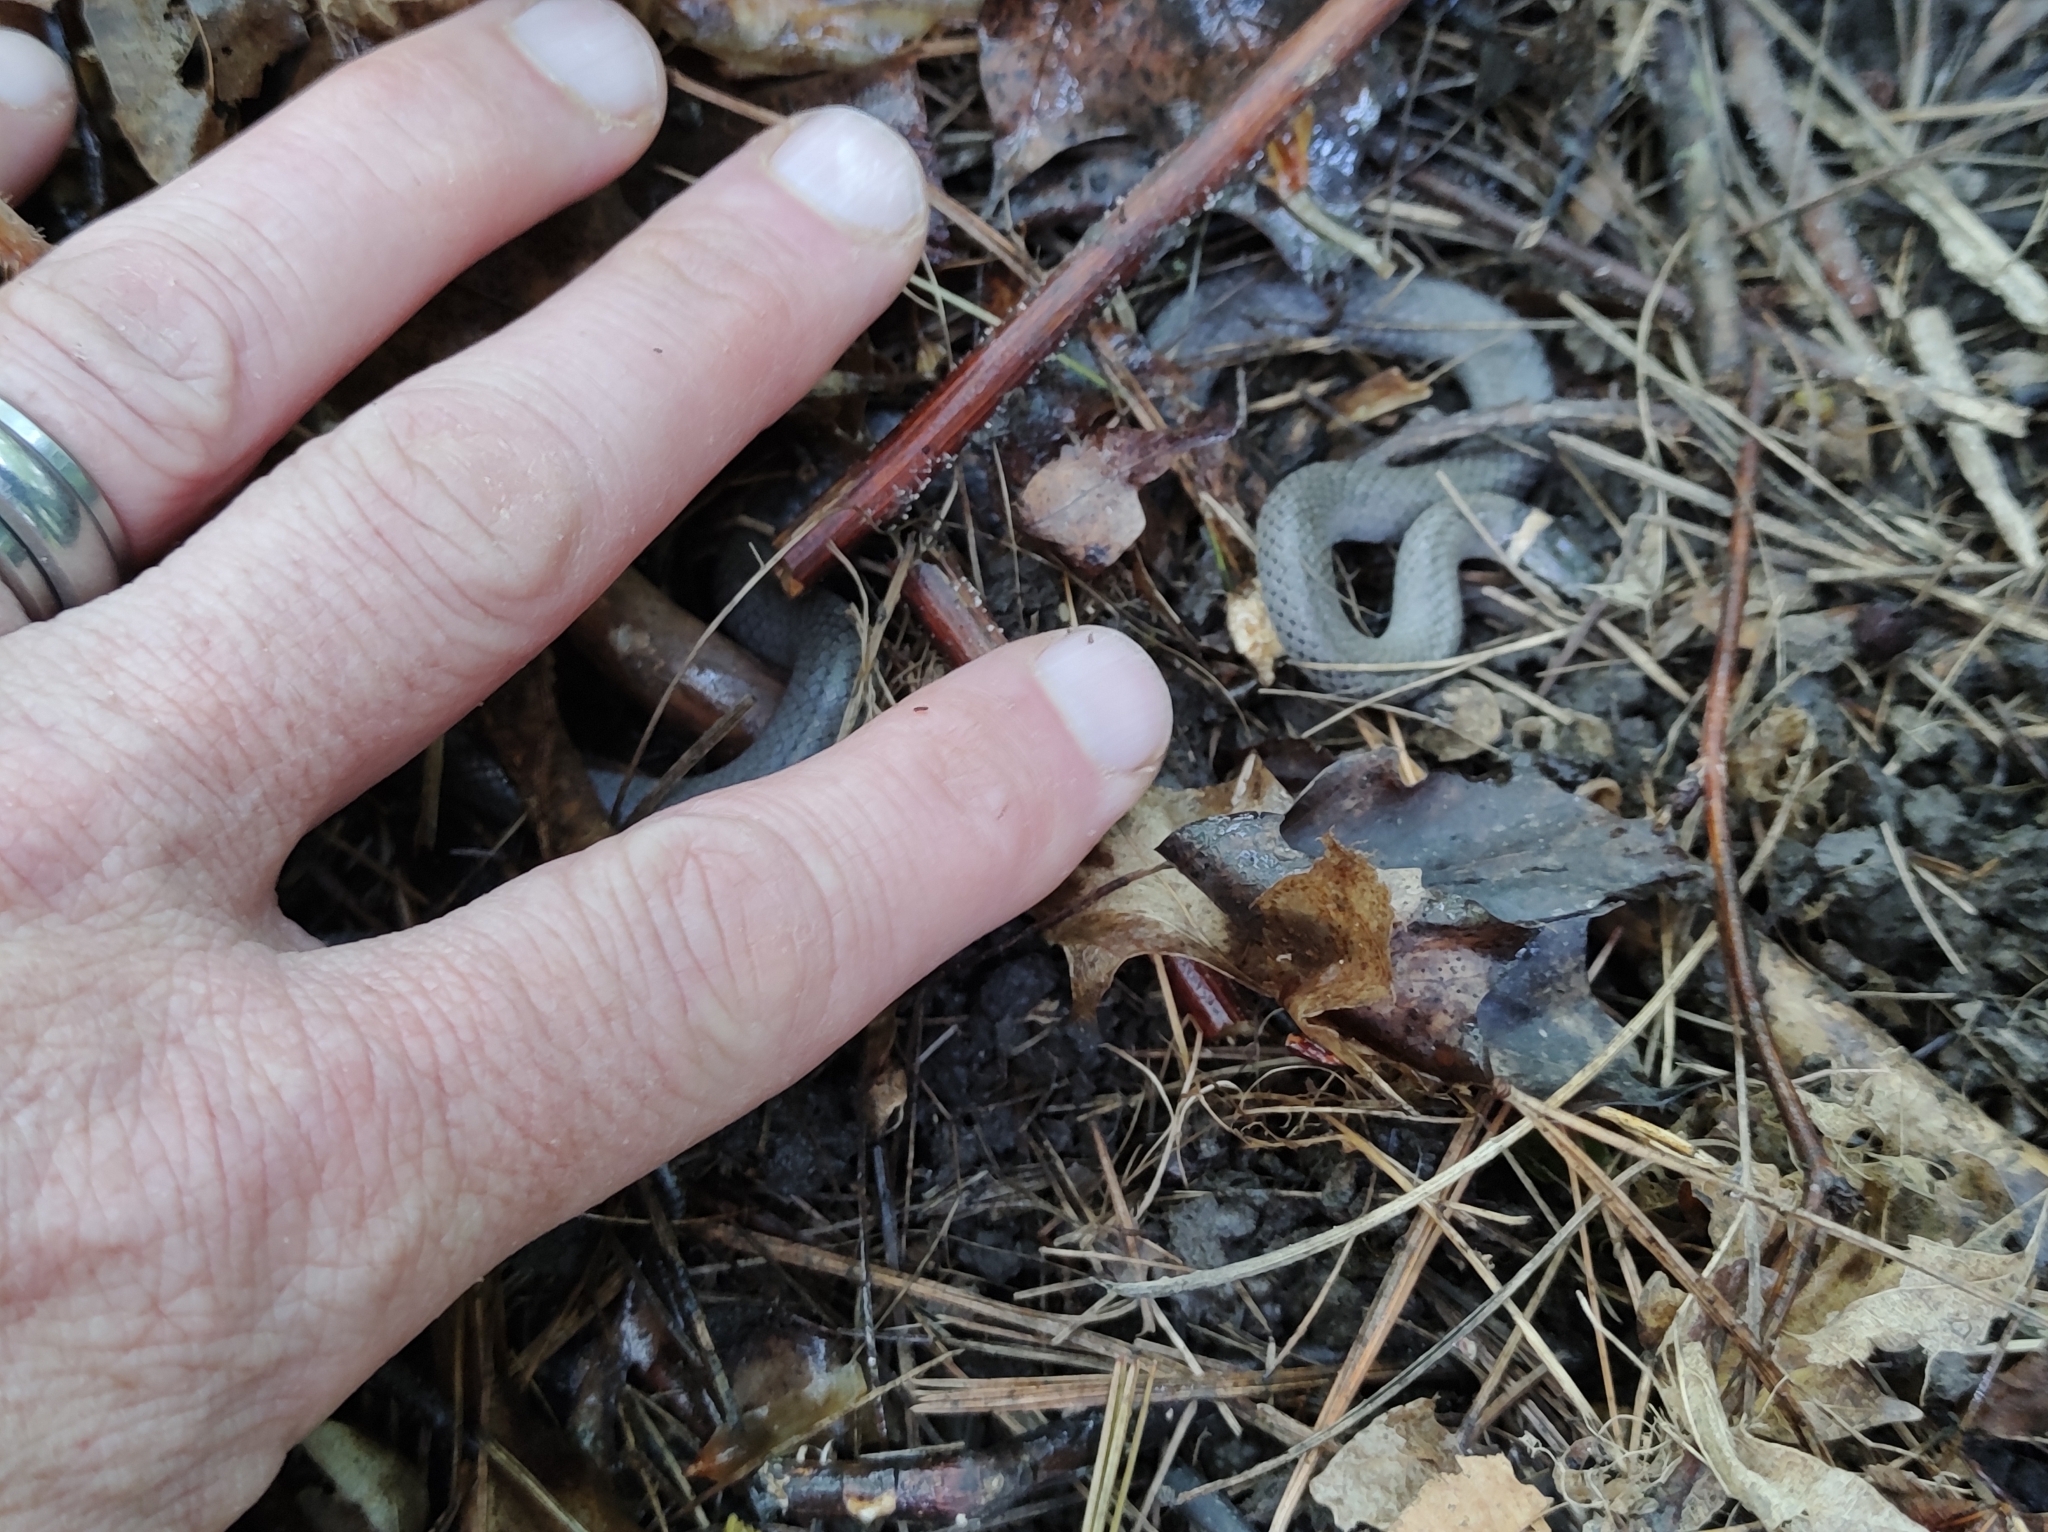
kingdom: Animalia
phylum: Chordata
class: Squamata
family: Colubridae
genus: Diadophis
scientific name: Diadophis punctatus
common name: Ringneck snake
